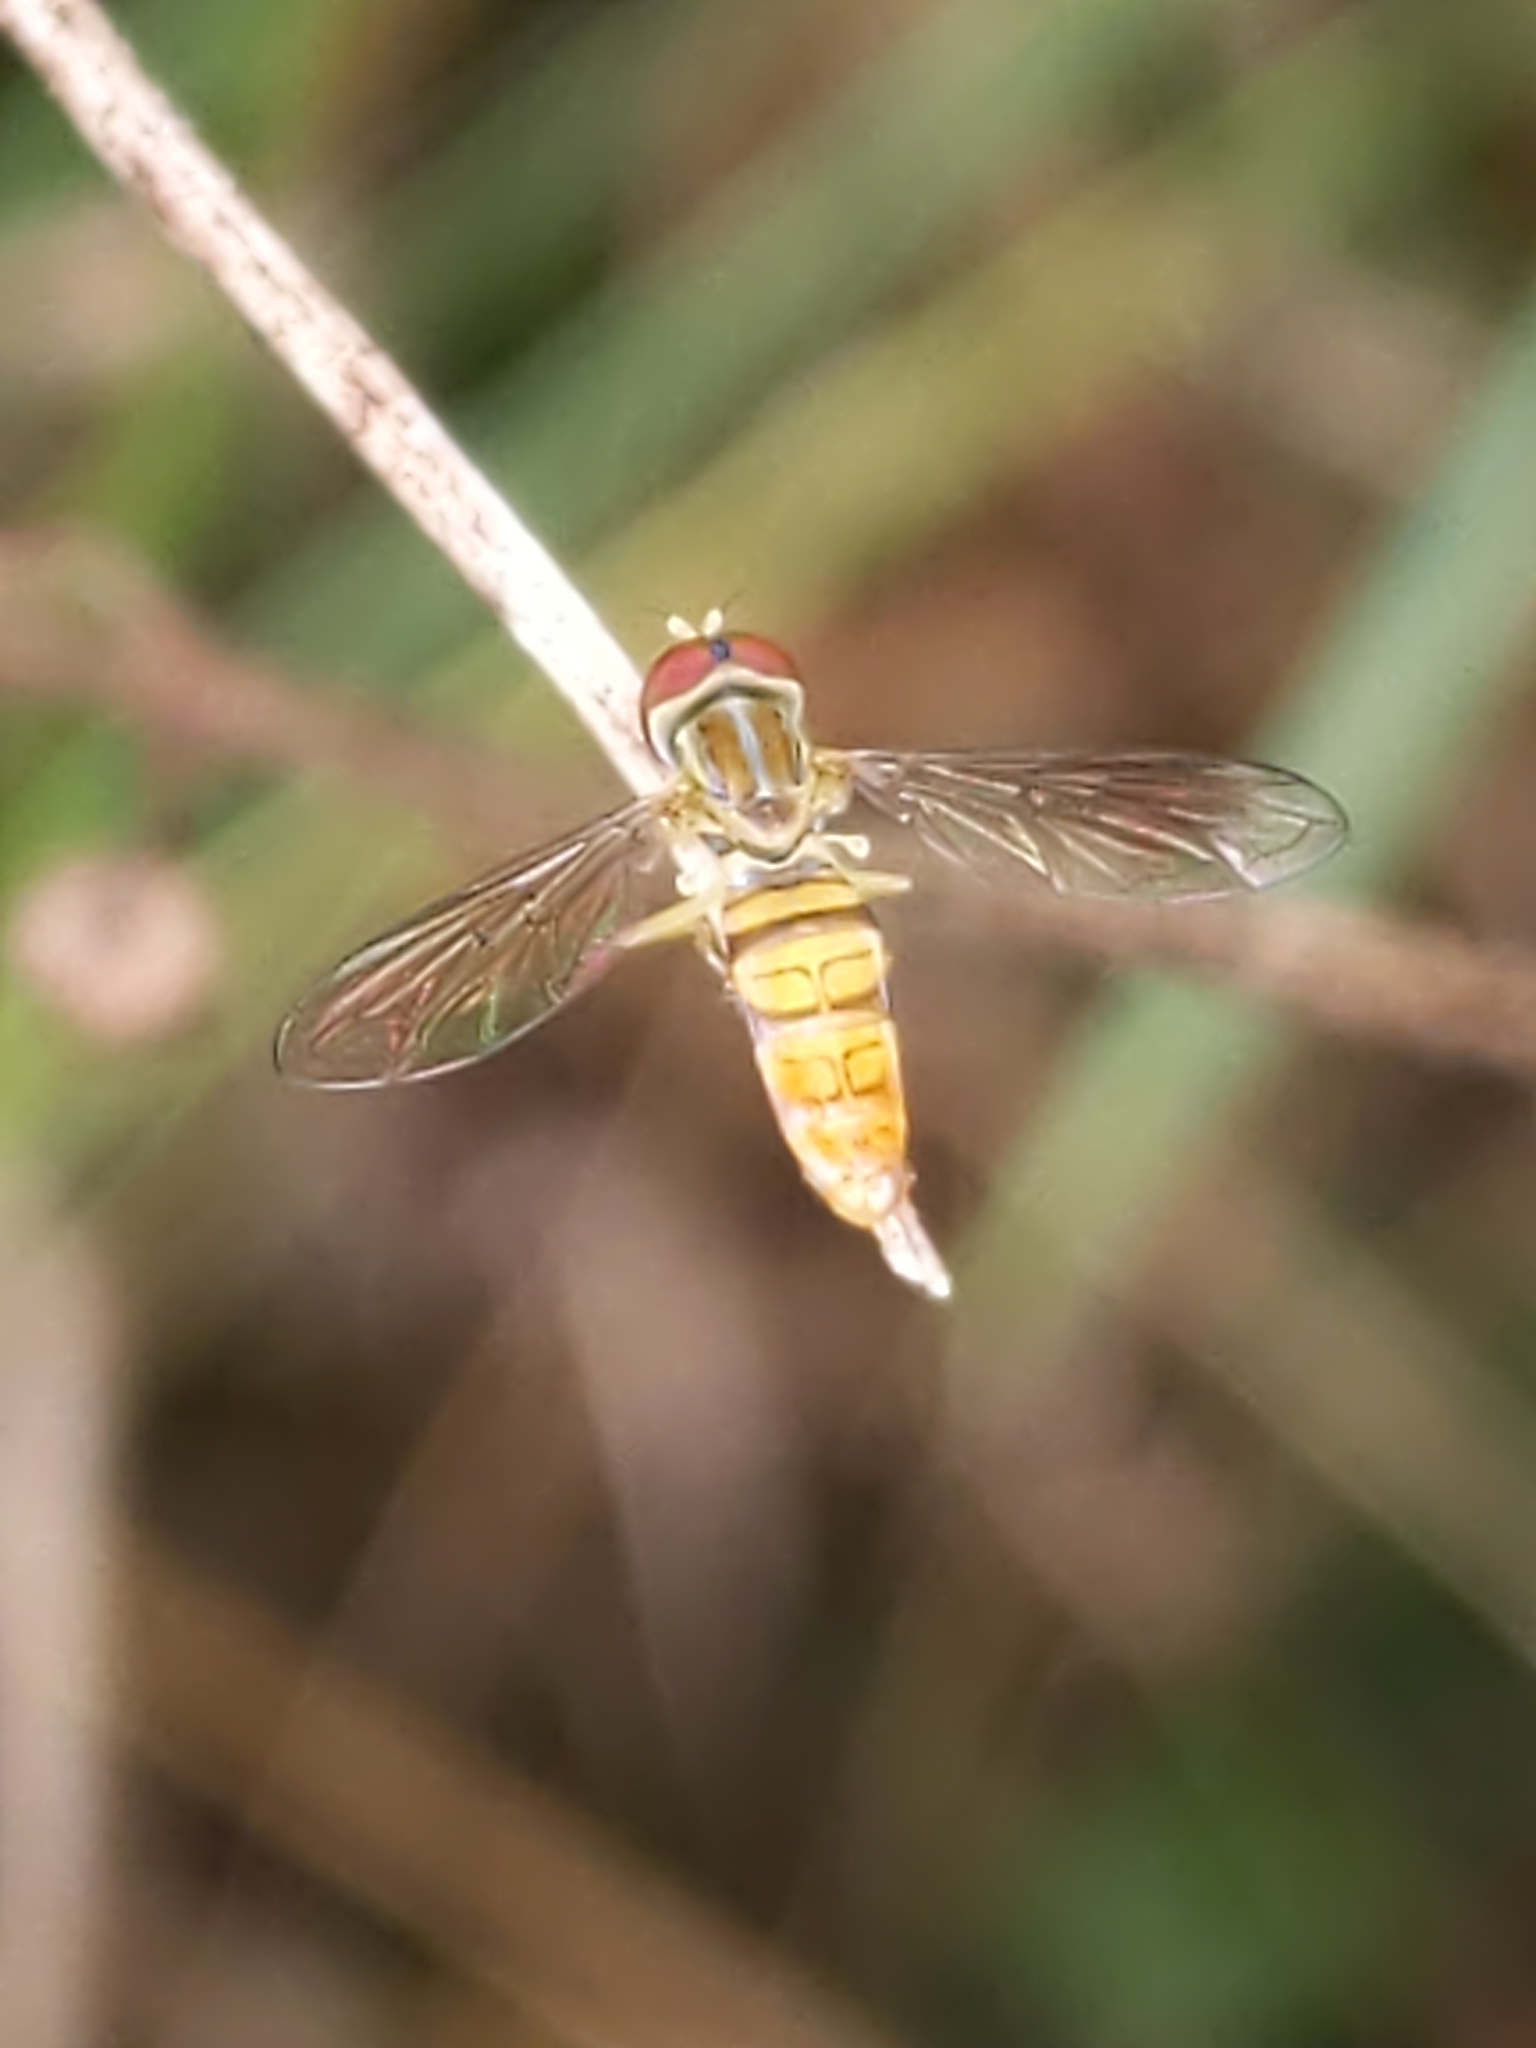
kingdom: Animalia
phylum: Arthropoda
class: Insecta
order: Diptera
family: Syrphidae
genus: Toxomerus
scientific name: Toxomerus politus
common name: Maize calligrapher
